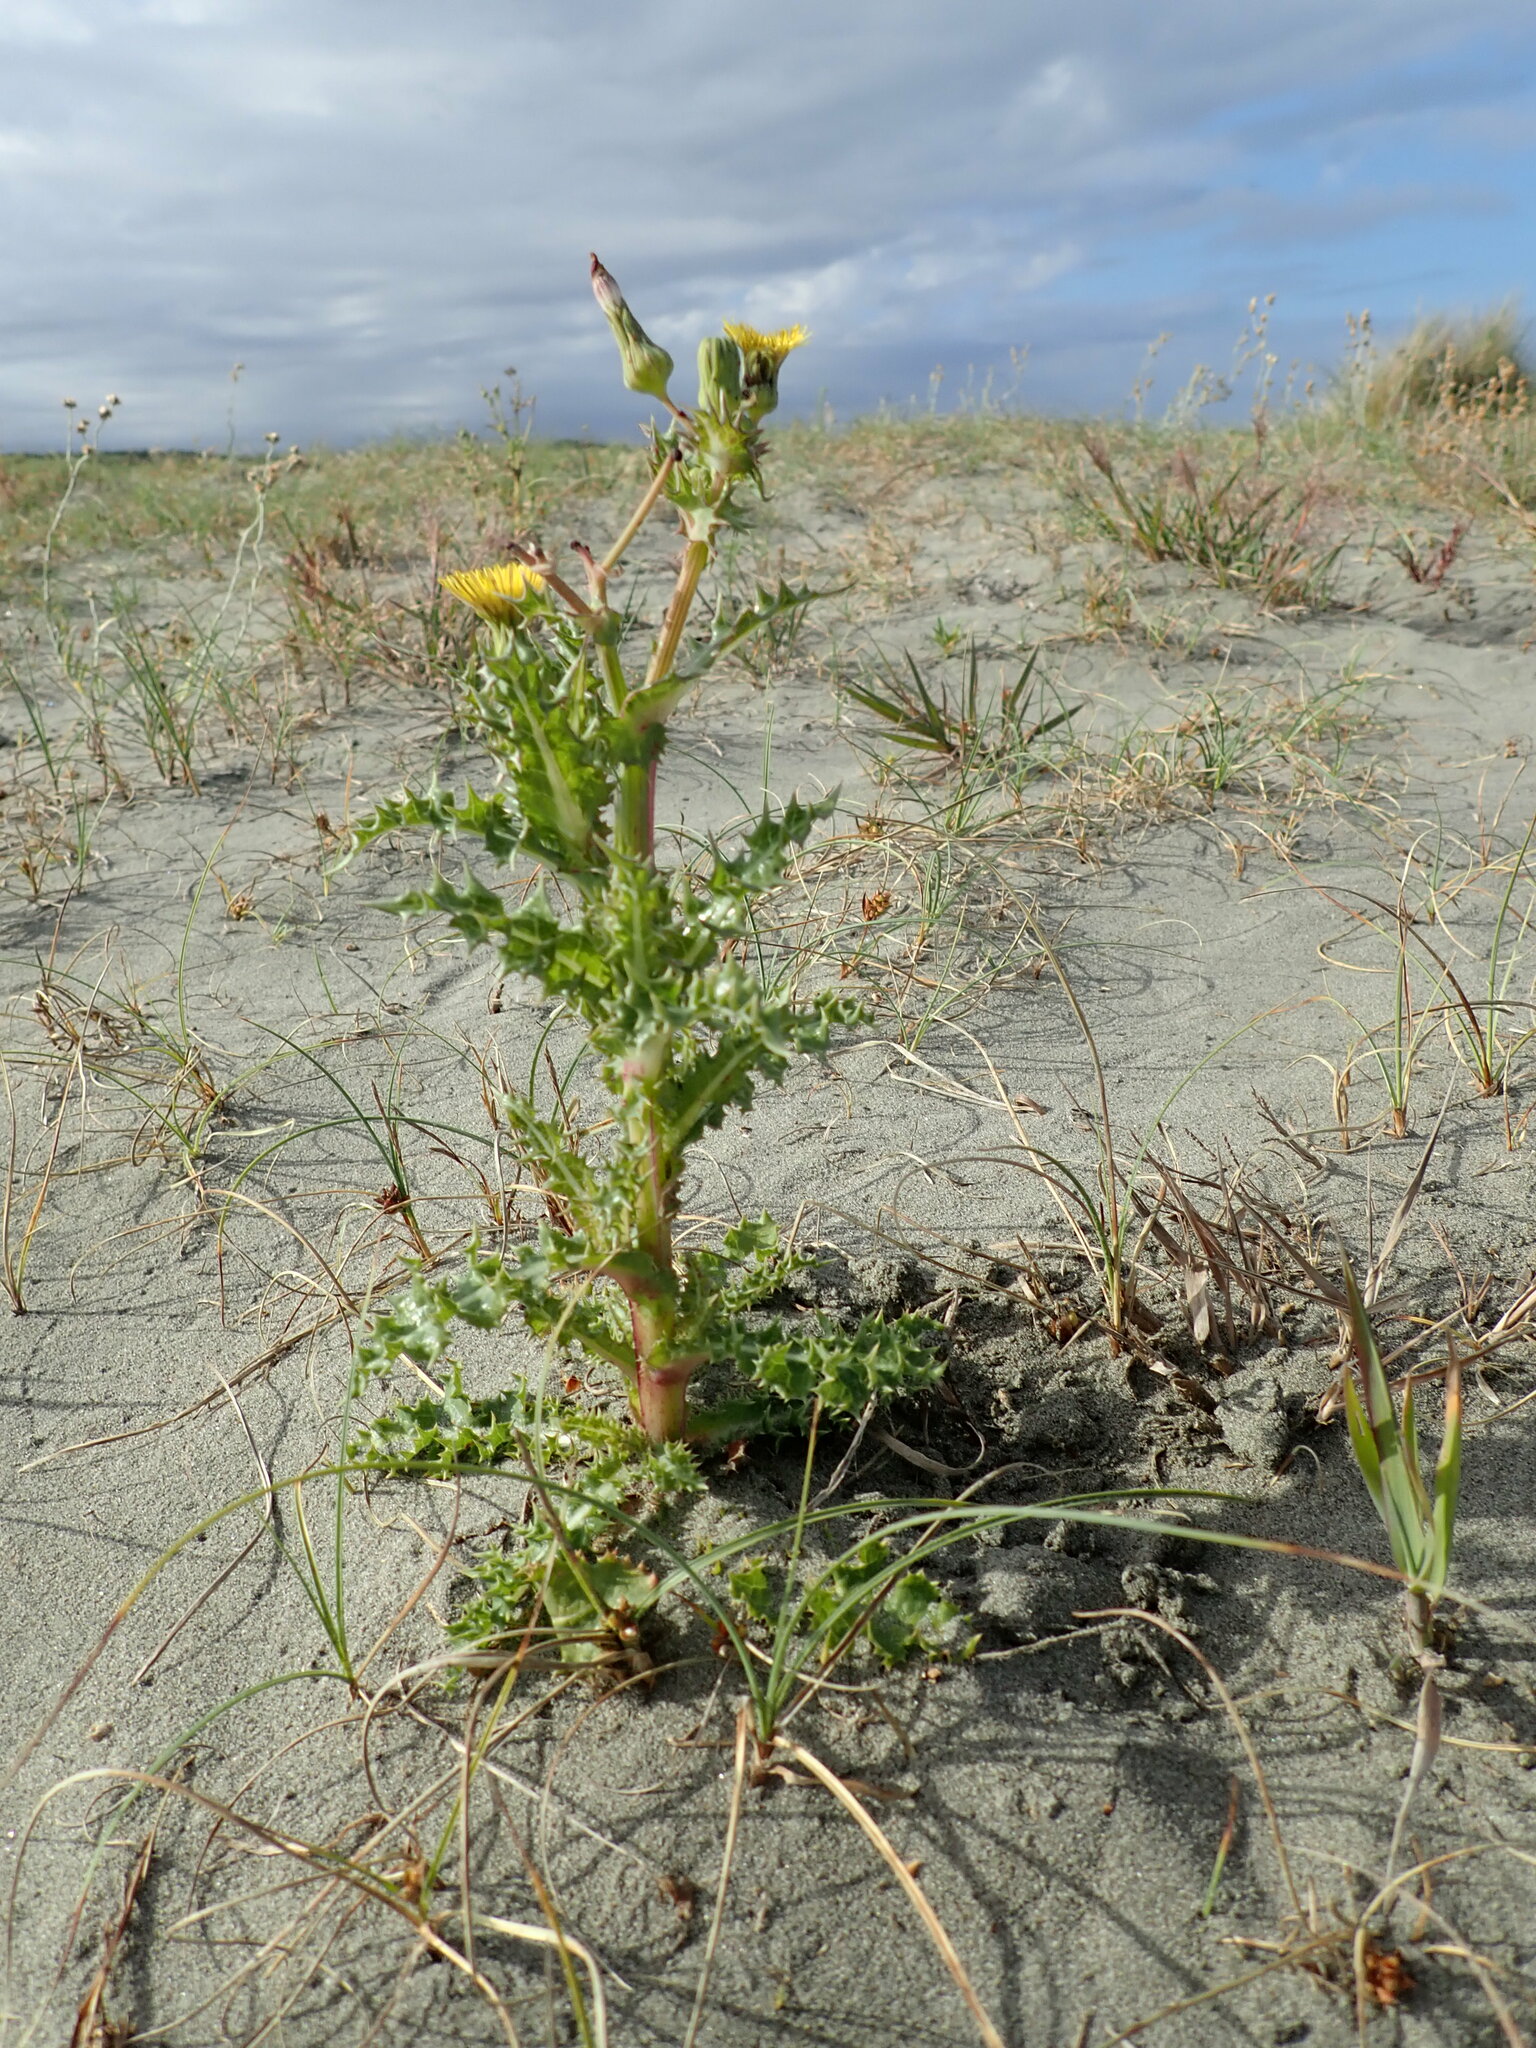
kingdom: Plantae
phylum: Tracheophyta
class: Magnoliopsida
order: Asterales
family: Asteraceae
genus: Sonchus
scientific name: Sonchus asper
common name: Prickly sow-thistle
